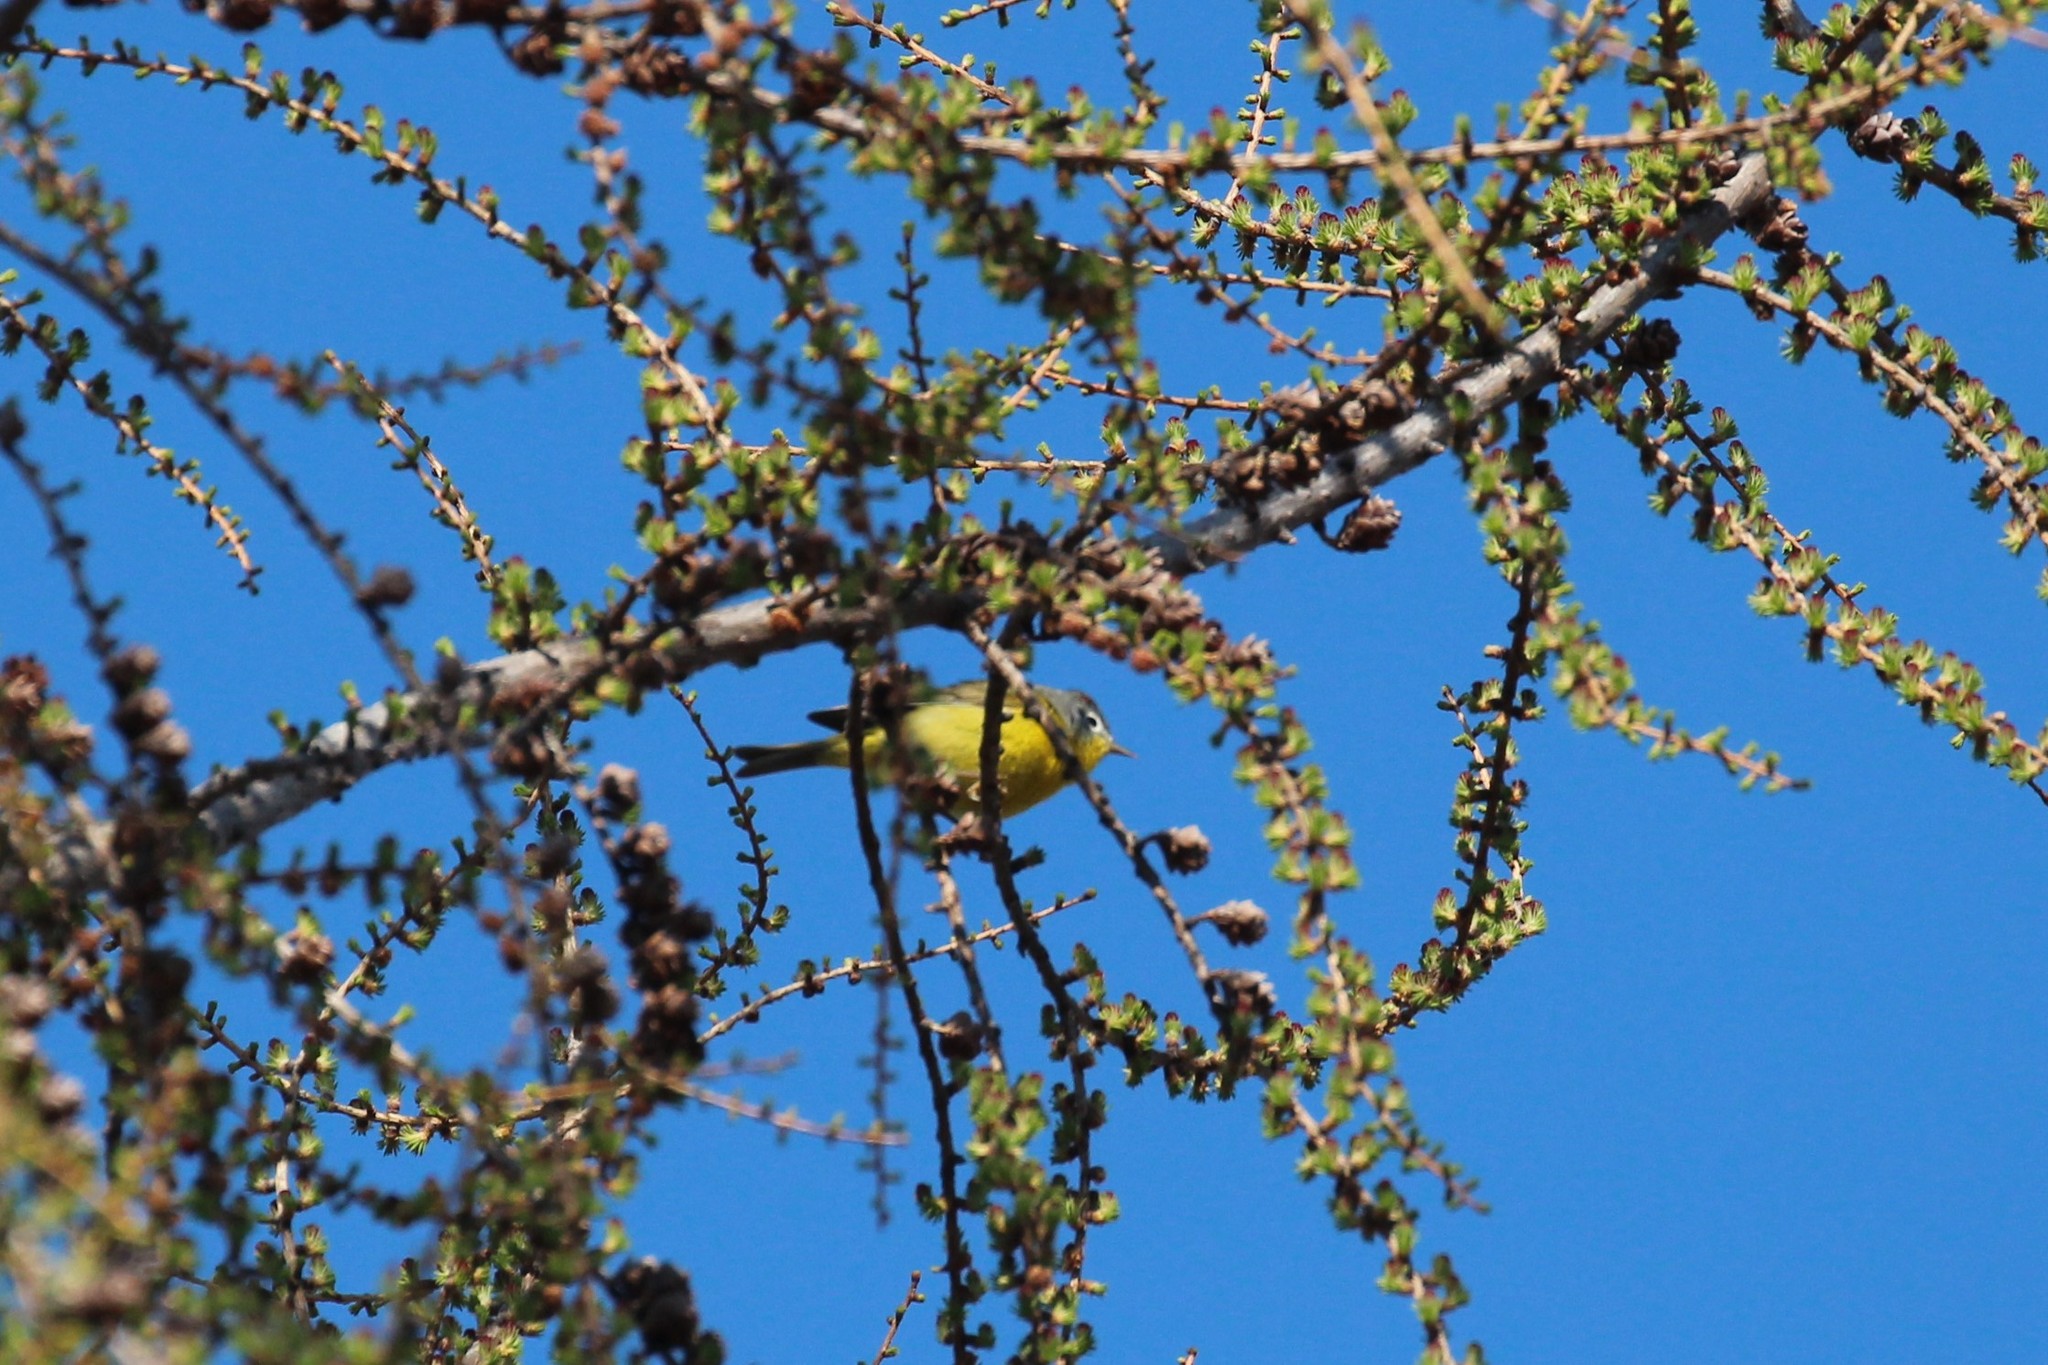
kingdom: Animalia
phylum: Chordata
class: Aves
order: Passeriformes
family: Parulidae
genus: Leiothlypis
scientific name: Leiothlypis ruficapilla
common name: Nashville warbler
